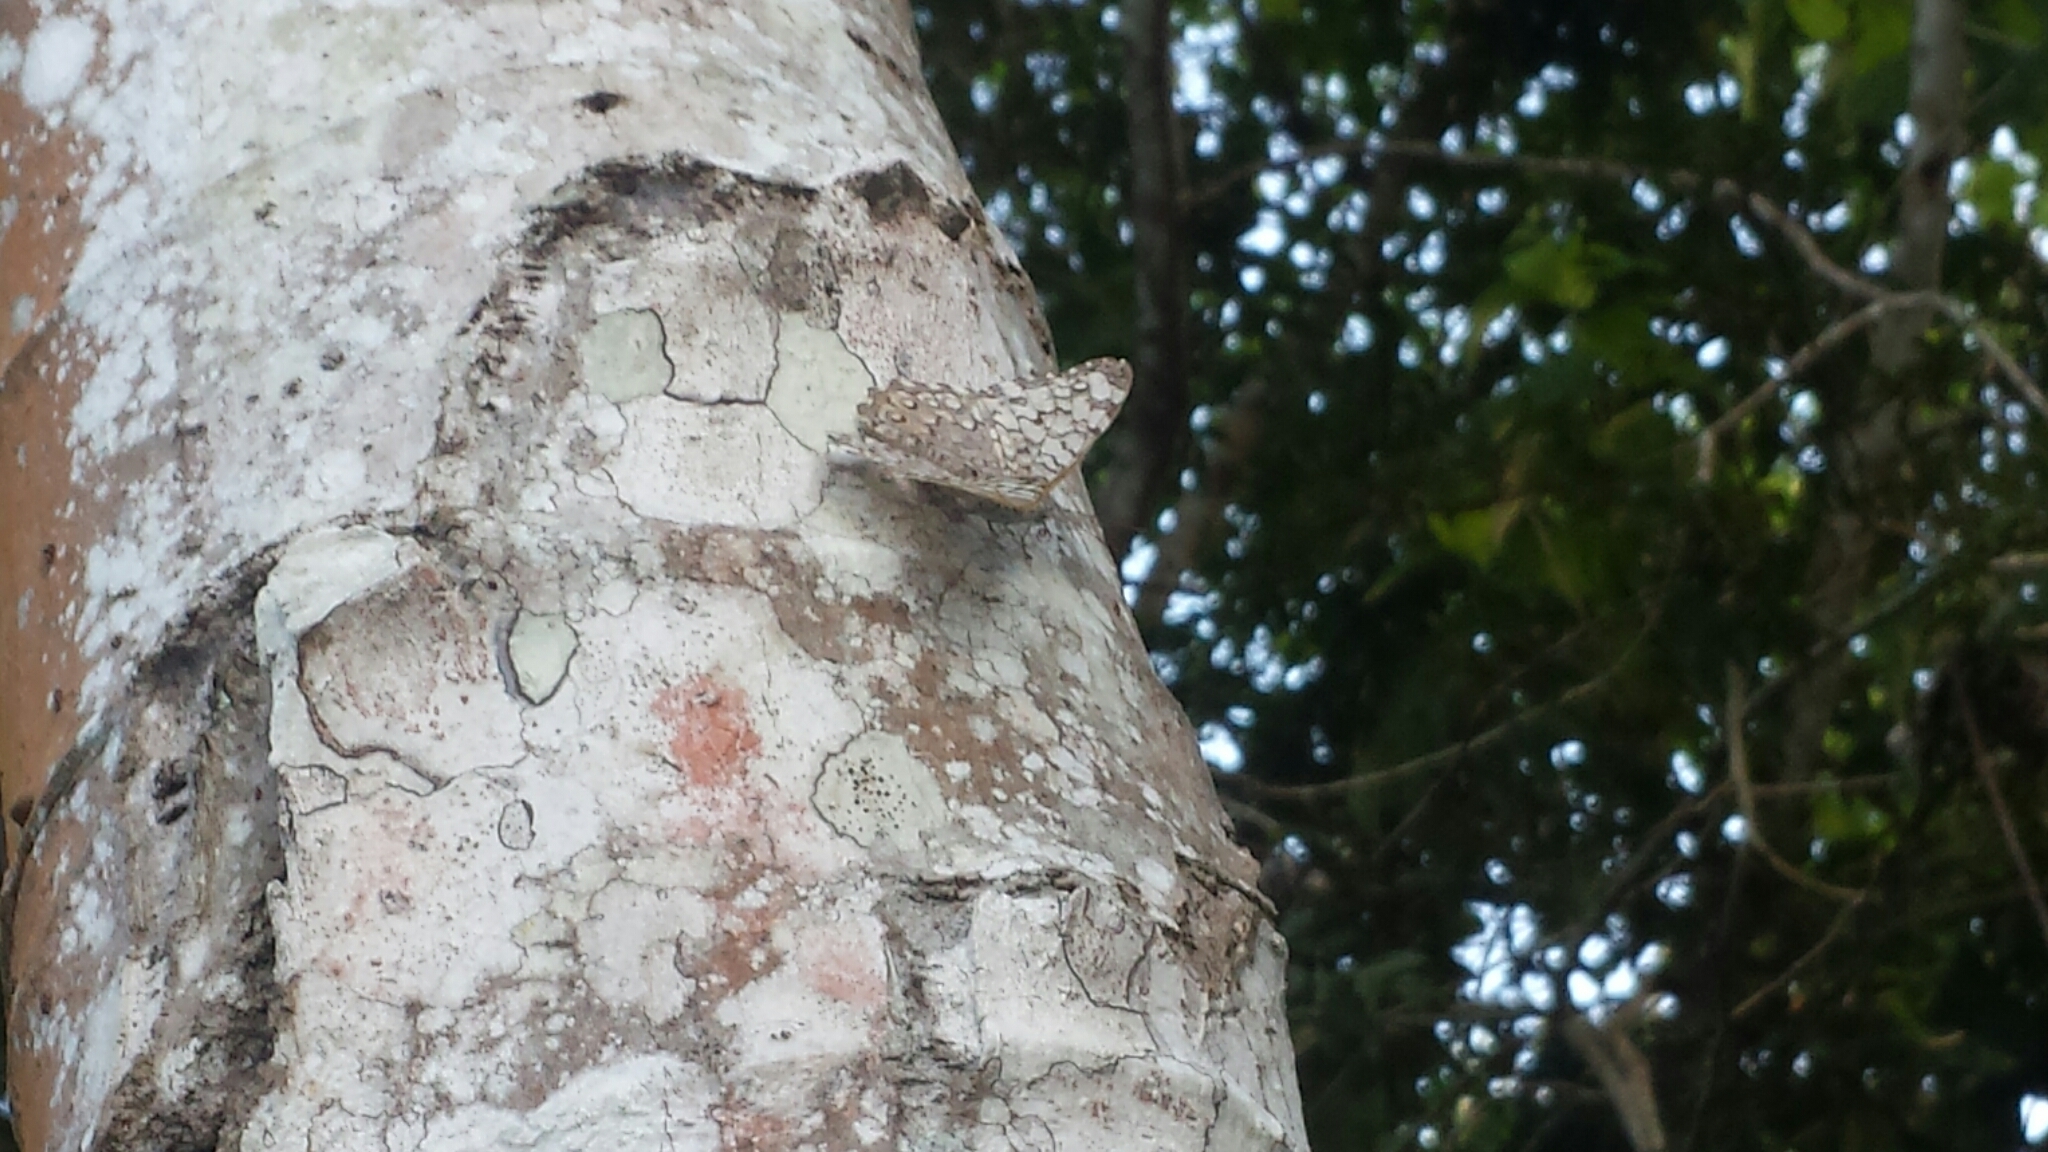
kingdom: Animalia
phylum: Arthropoda
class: Insecta
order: Lepidoptera
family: Nymphalidae
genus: Hamadryas
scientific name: Hamadryas februa
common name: Gray cracker
